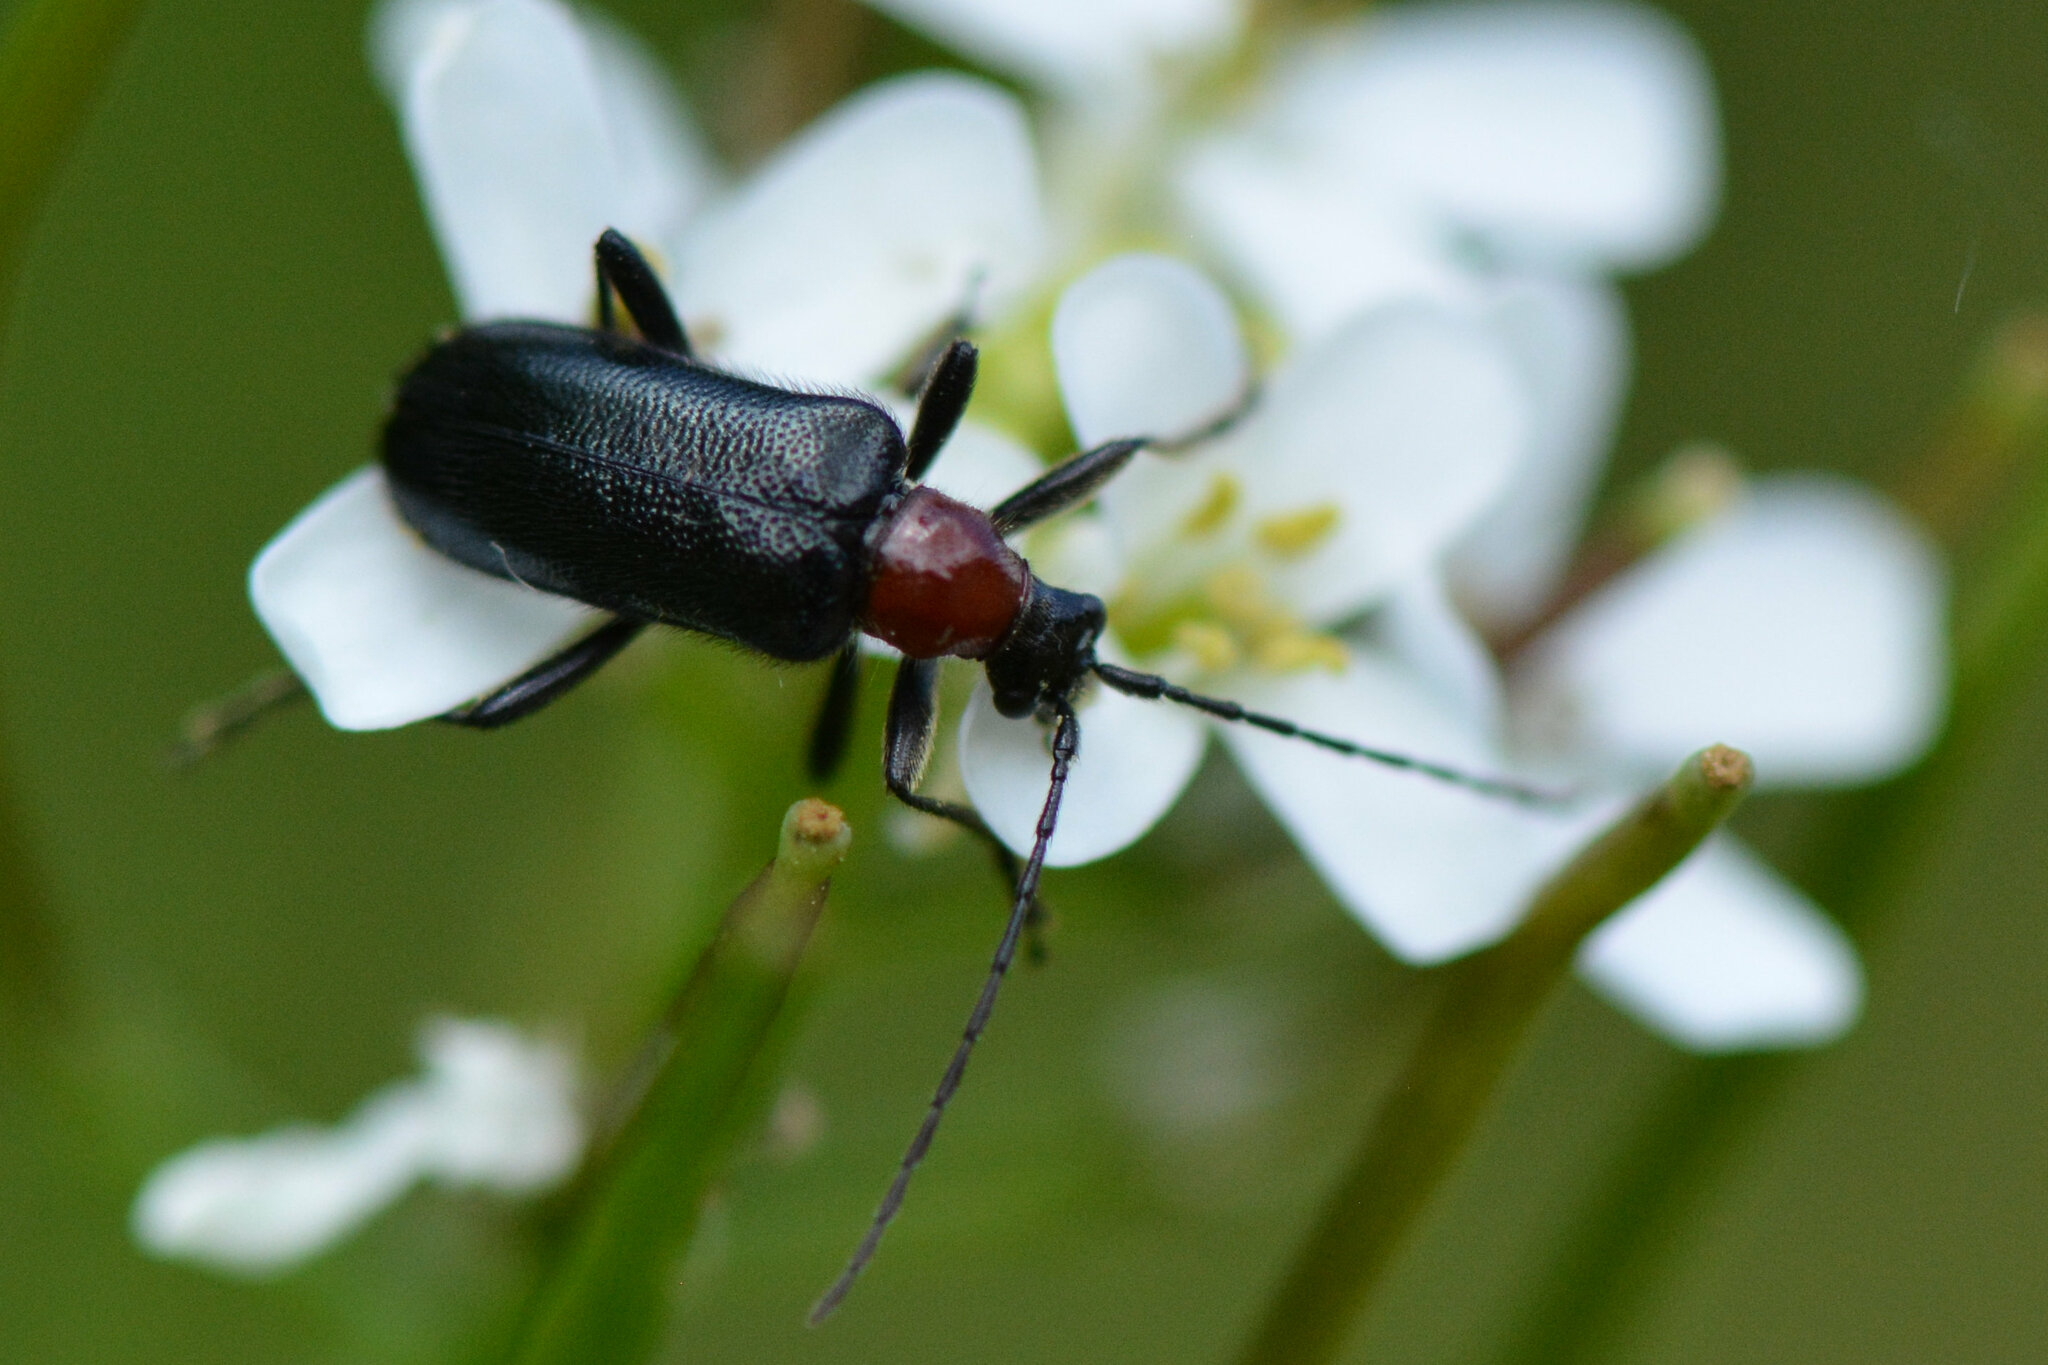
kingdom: Animalia
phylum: Arthropoda
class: Insecta
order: Coleoptera
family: Cerambycidae
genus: Dinoptera
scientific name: Dinoptera collaris
